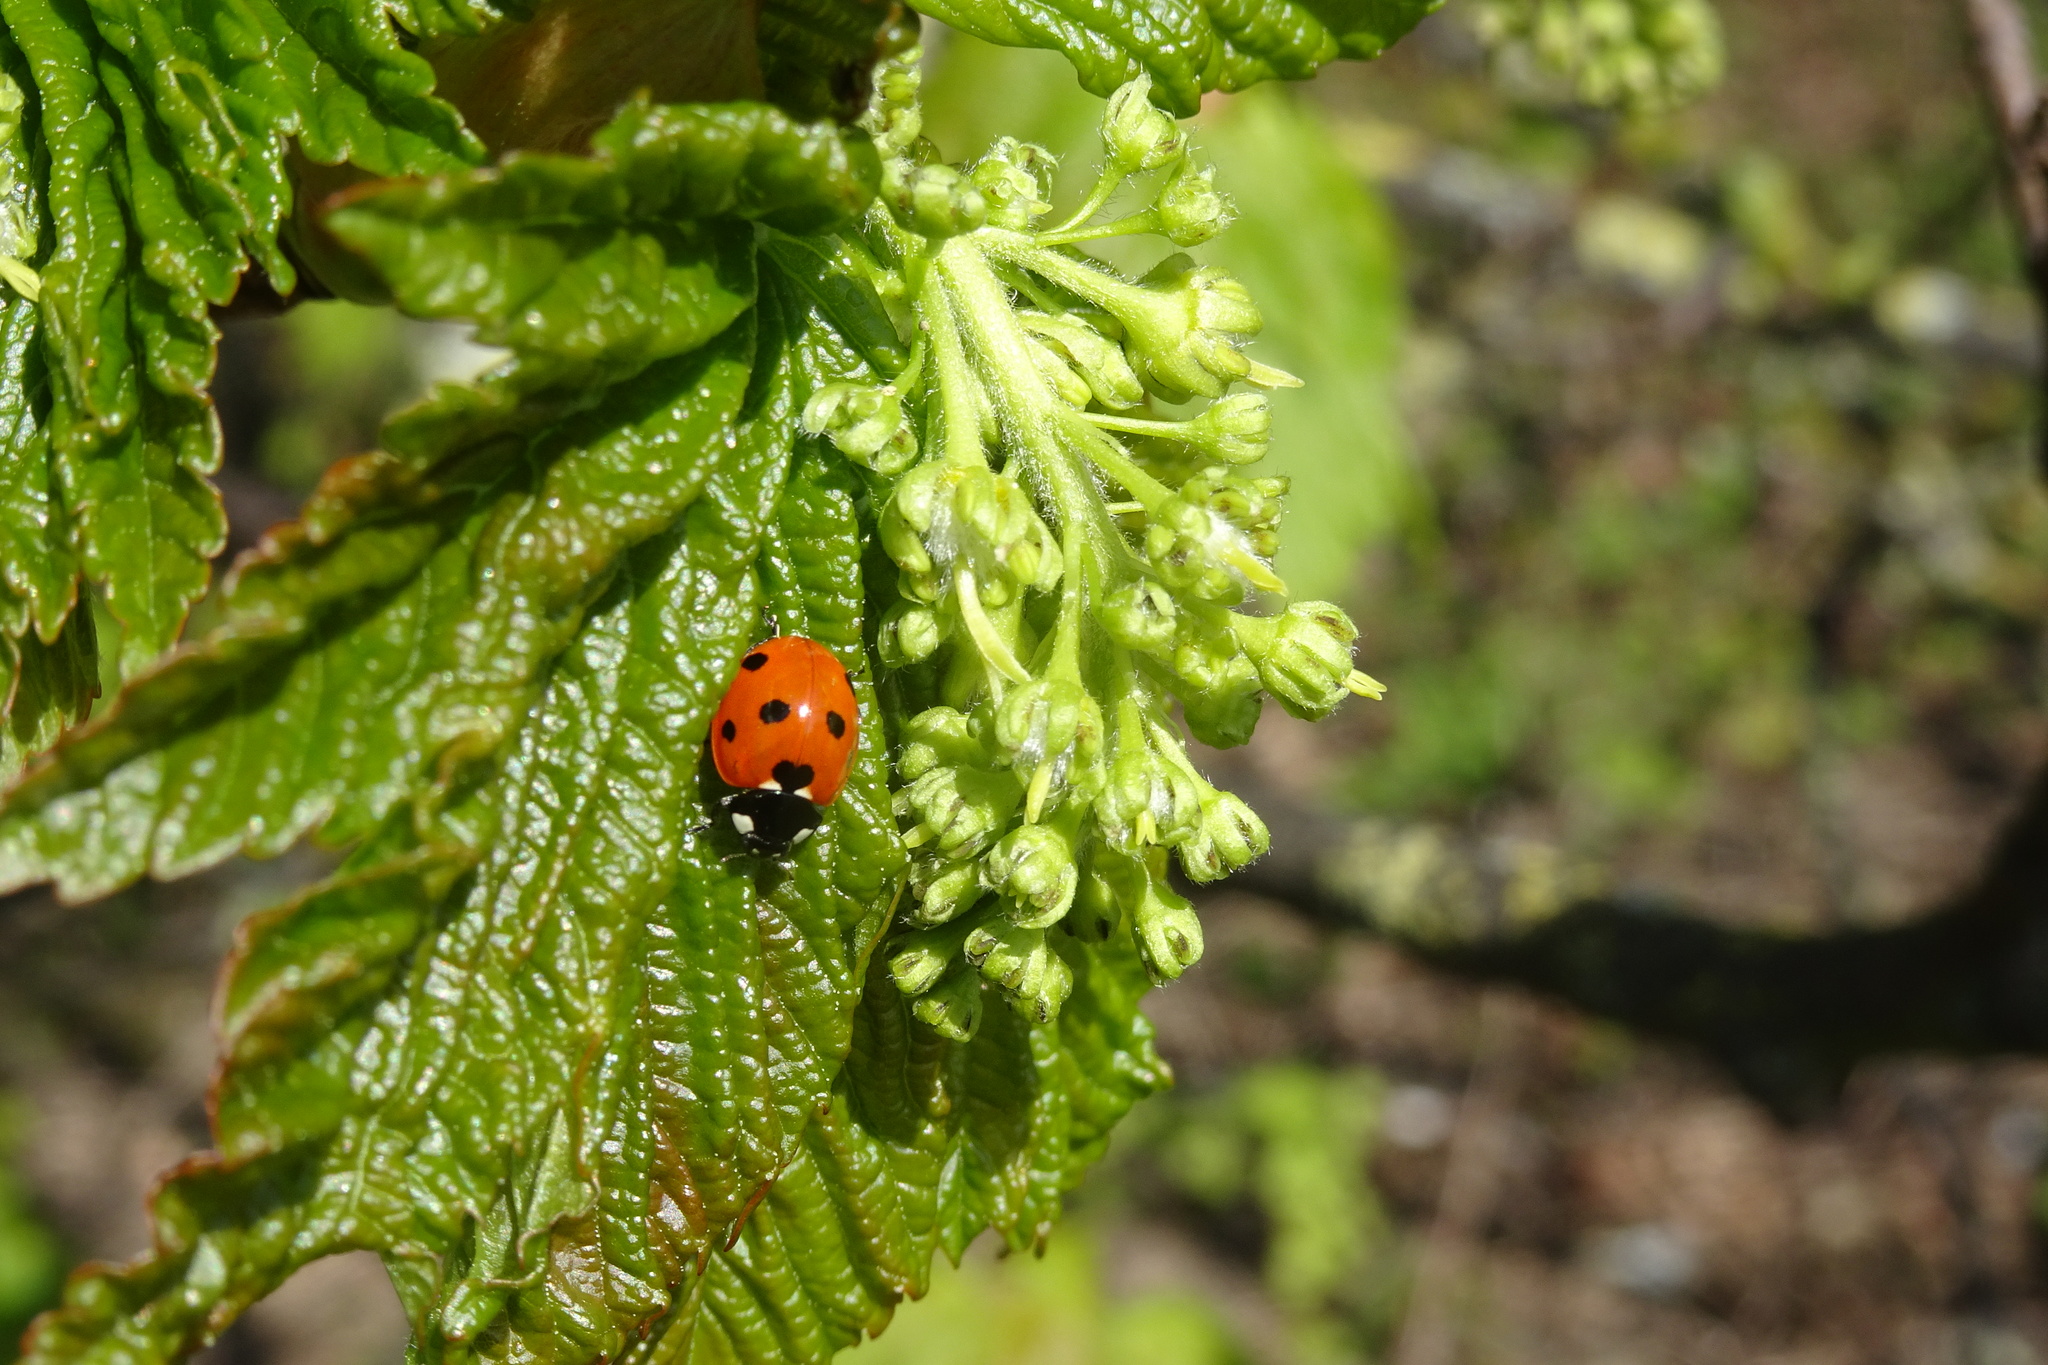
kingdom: Animalia
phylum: Arthropoda
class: Insecta
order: Coleoptera
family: Coccinellidae
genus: Coccinella
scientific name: Coccinella septempunctata
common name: Sevenspotted lady beetle
